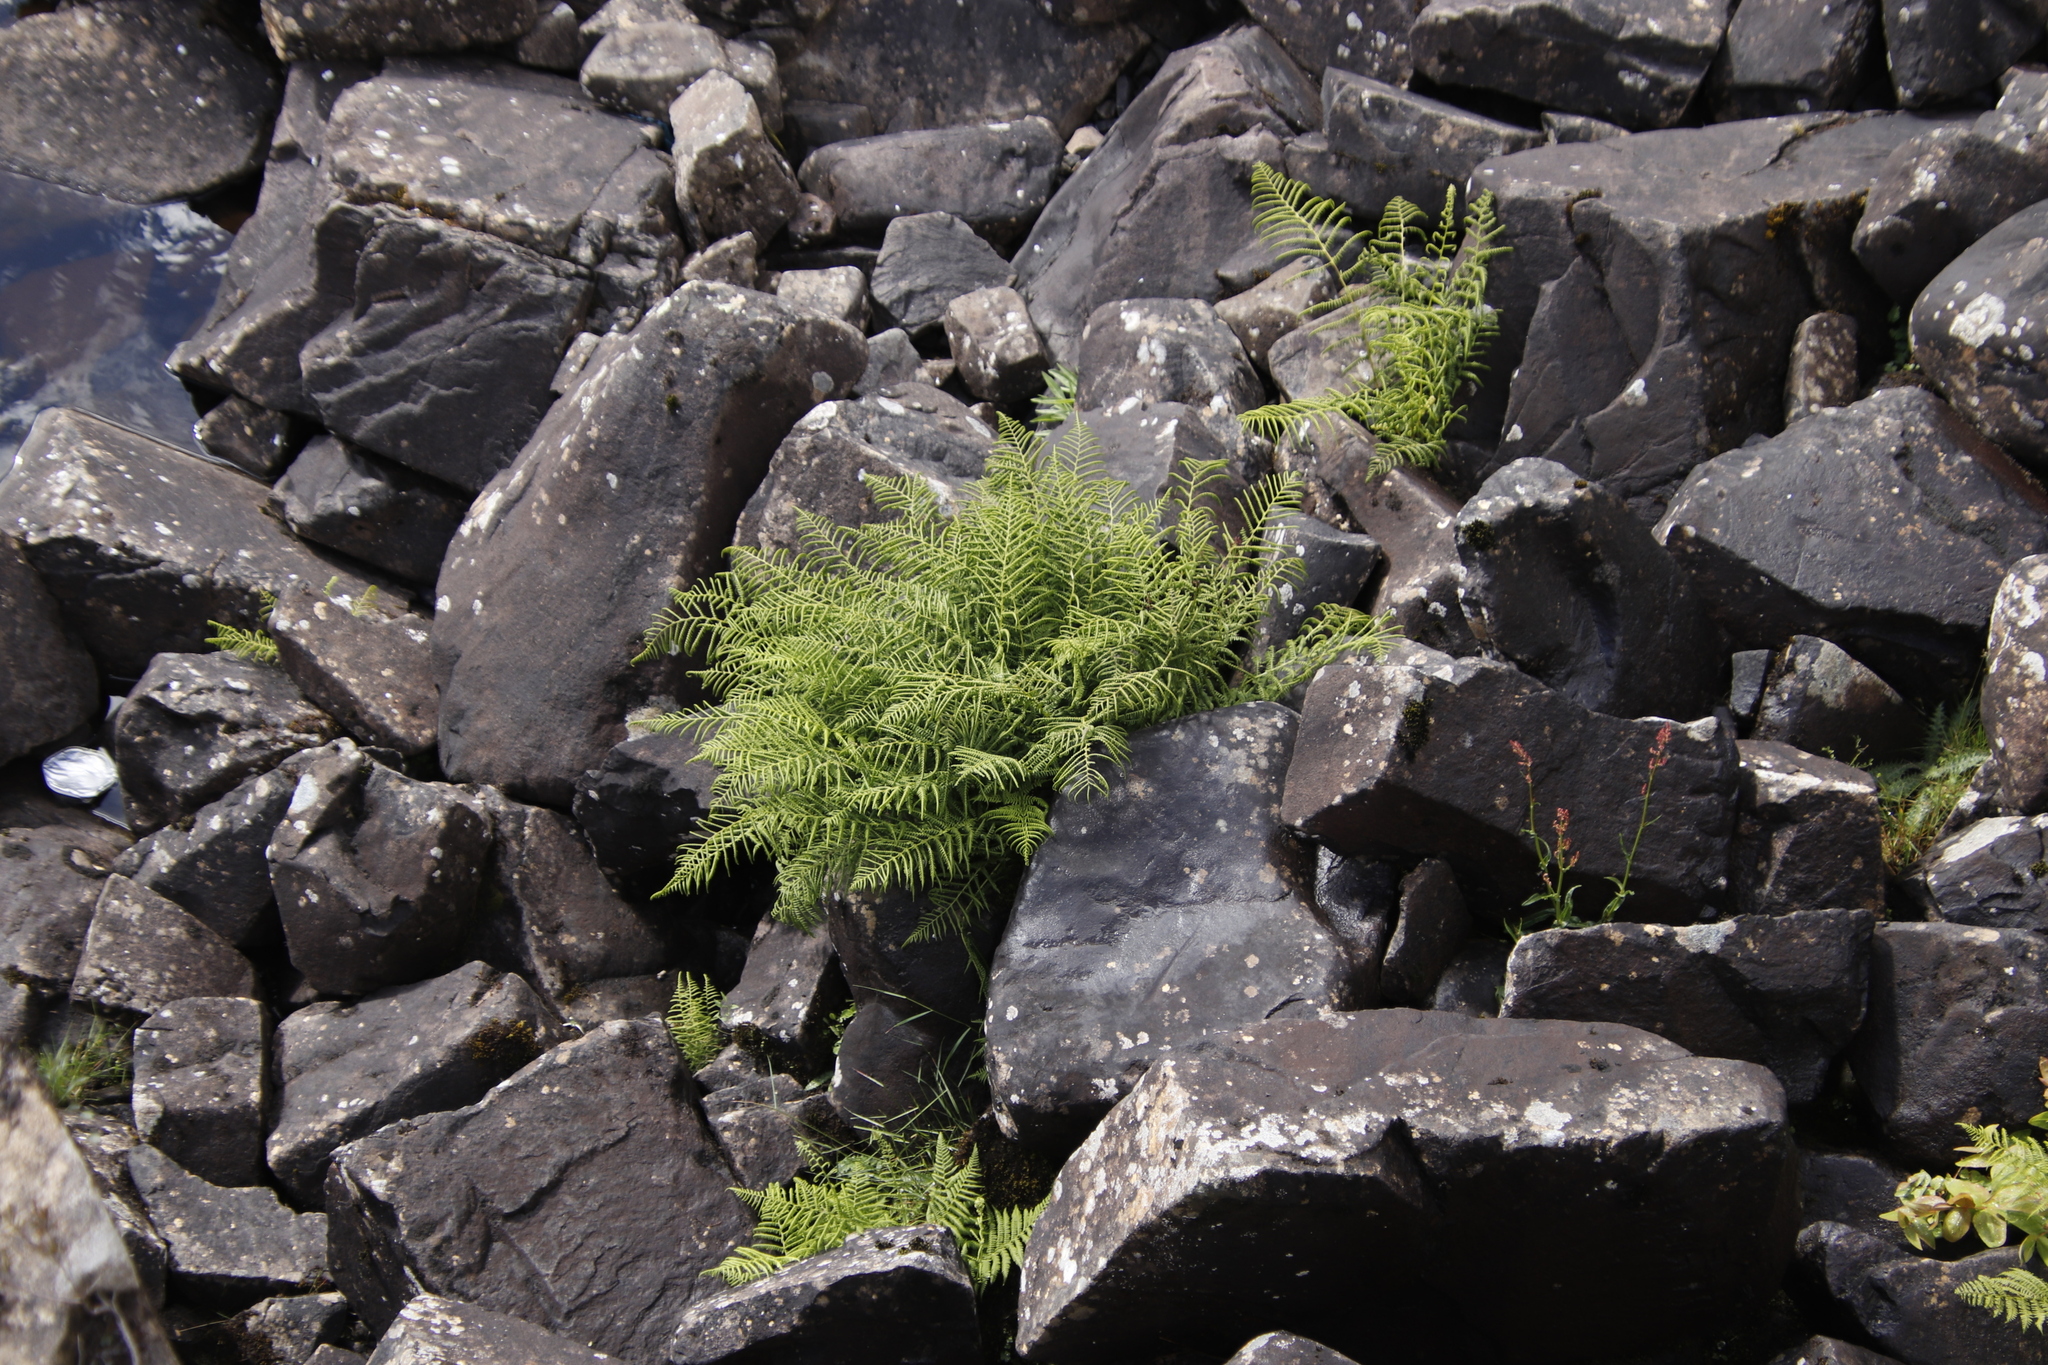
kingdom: Plantae
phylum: Tracheophyta
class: Polypodiopsida
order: Polypodiales
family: Athyriaceae
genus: Athyrium
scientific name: Athyrium filix-femina
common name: Lady fern
